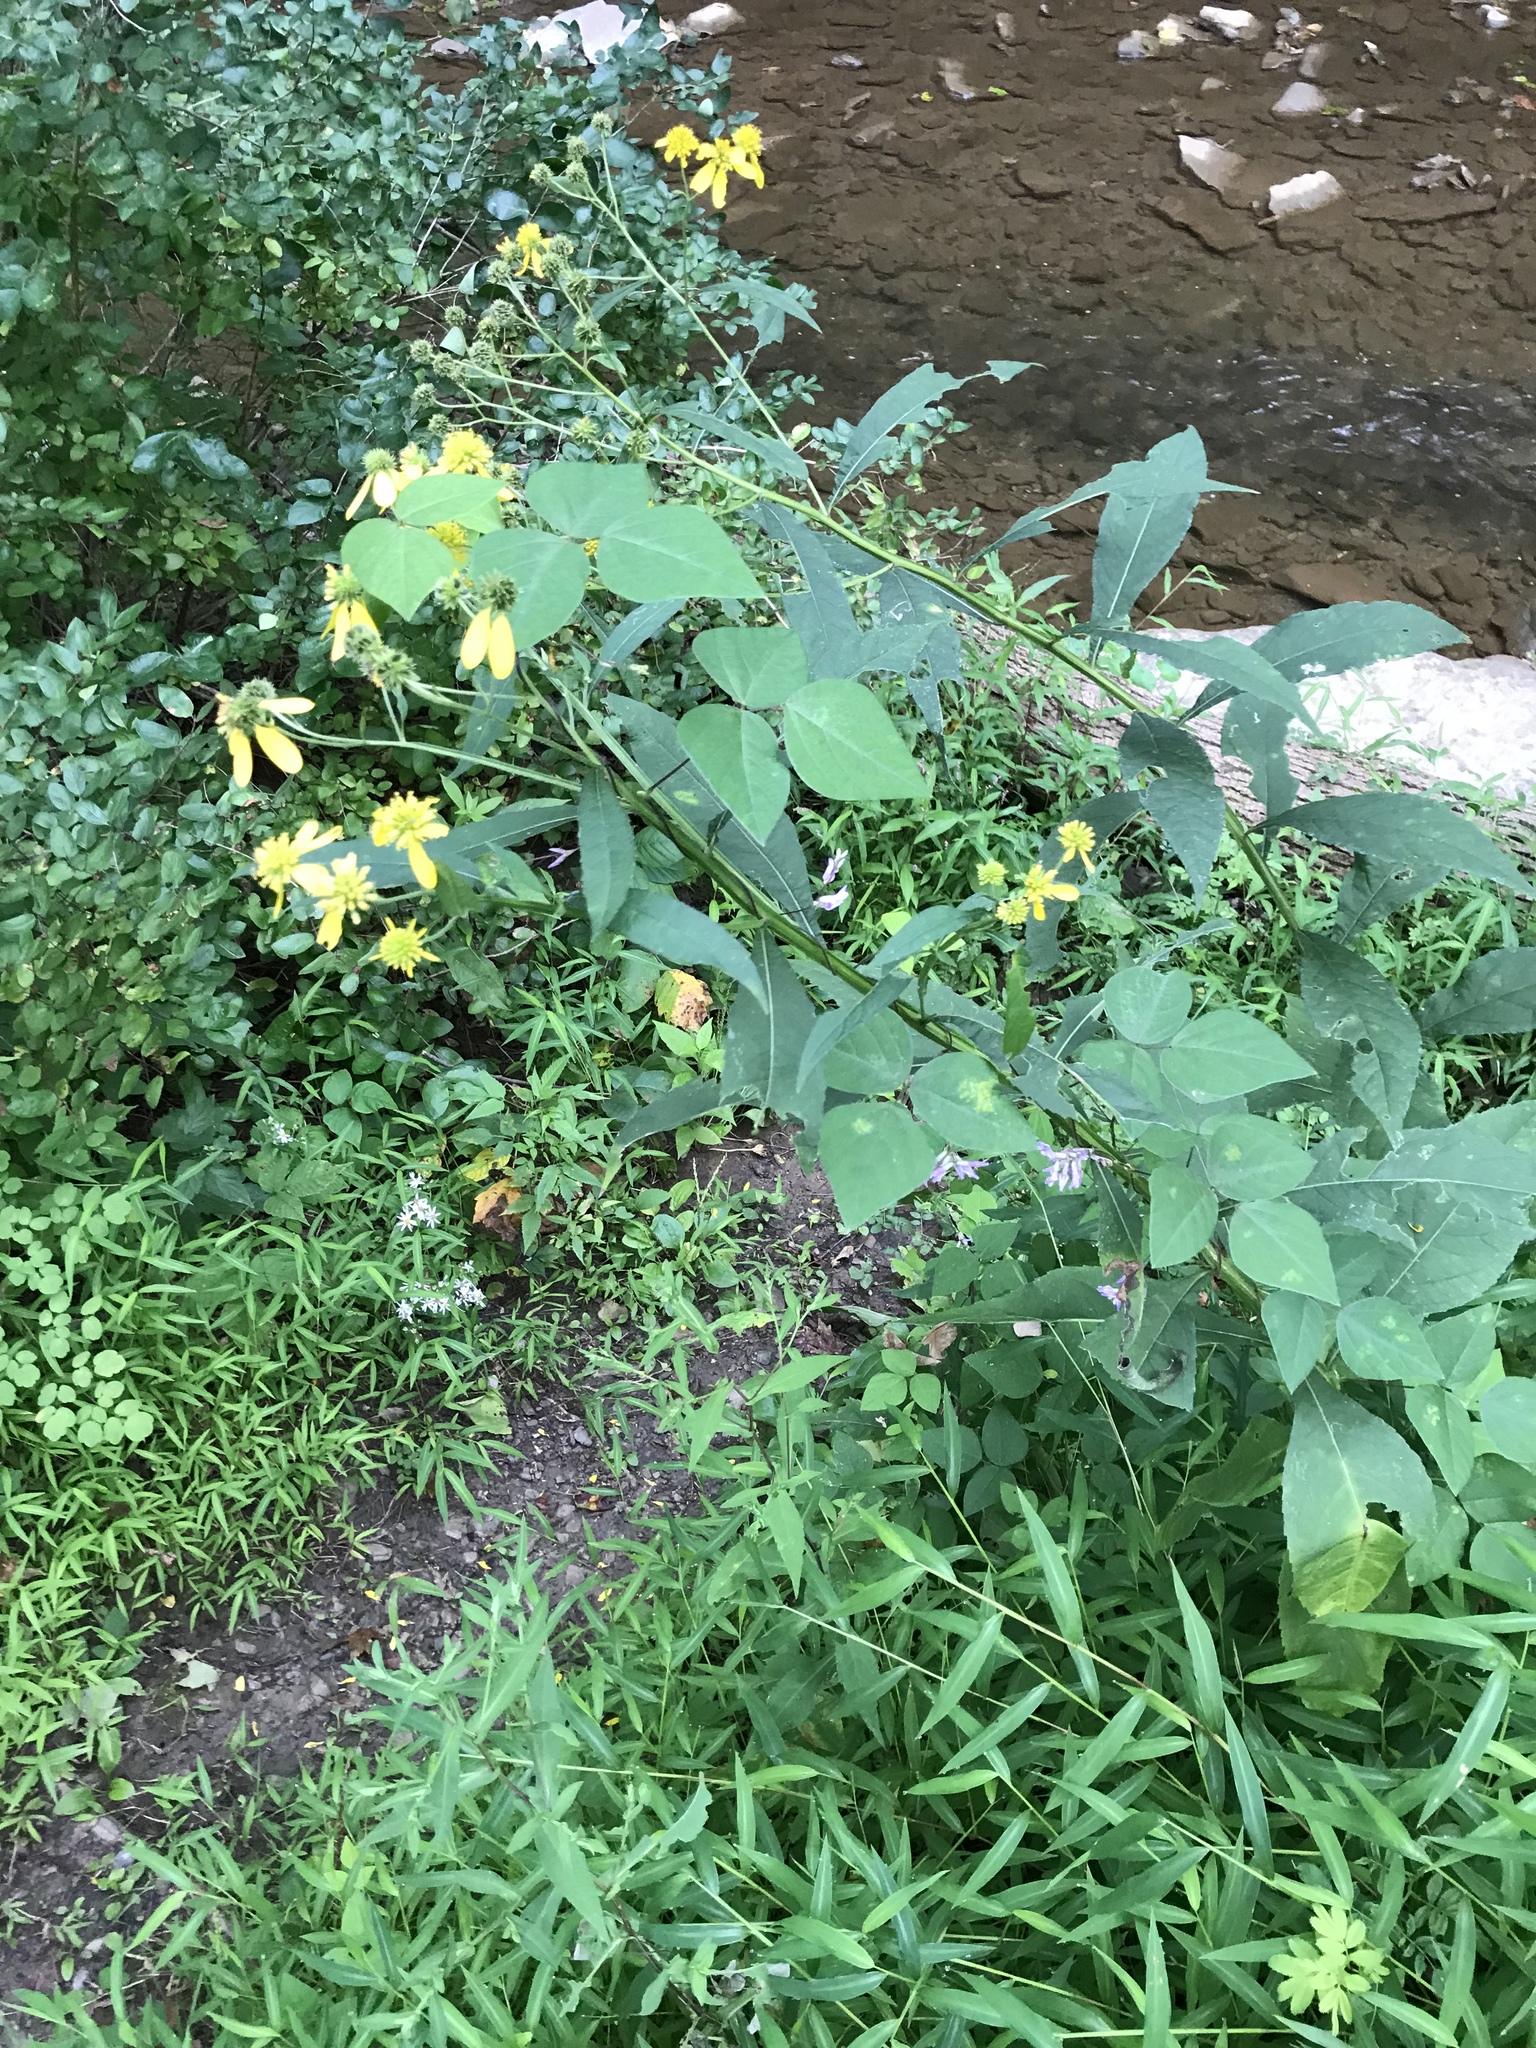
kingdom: Plantae
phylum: Tracheophyta
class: Magnoliopsida
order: Fabales
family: Fabaceae
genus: Amphicarpaea
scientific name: Amphicarpaea bracteata
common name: American hog peanut
